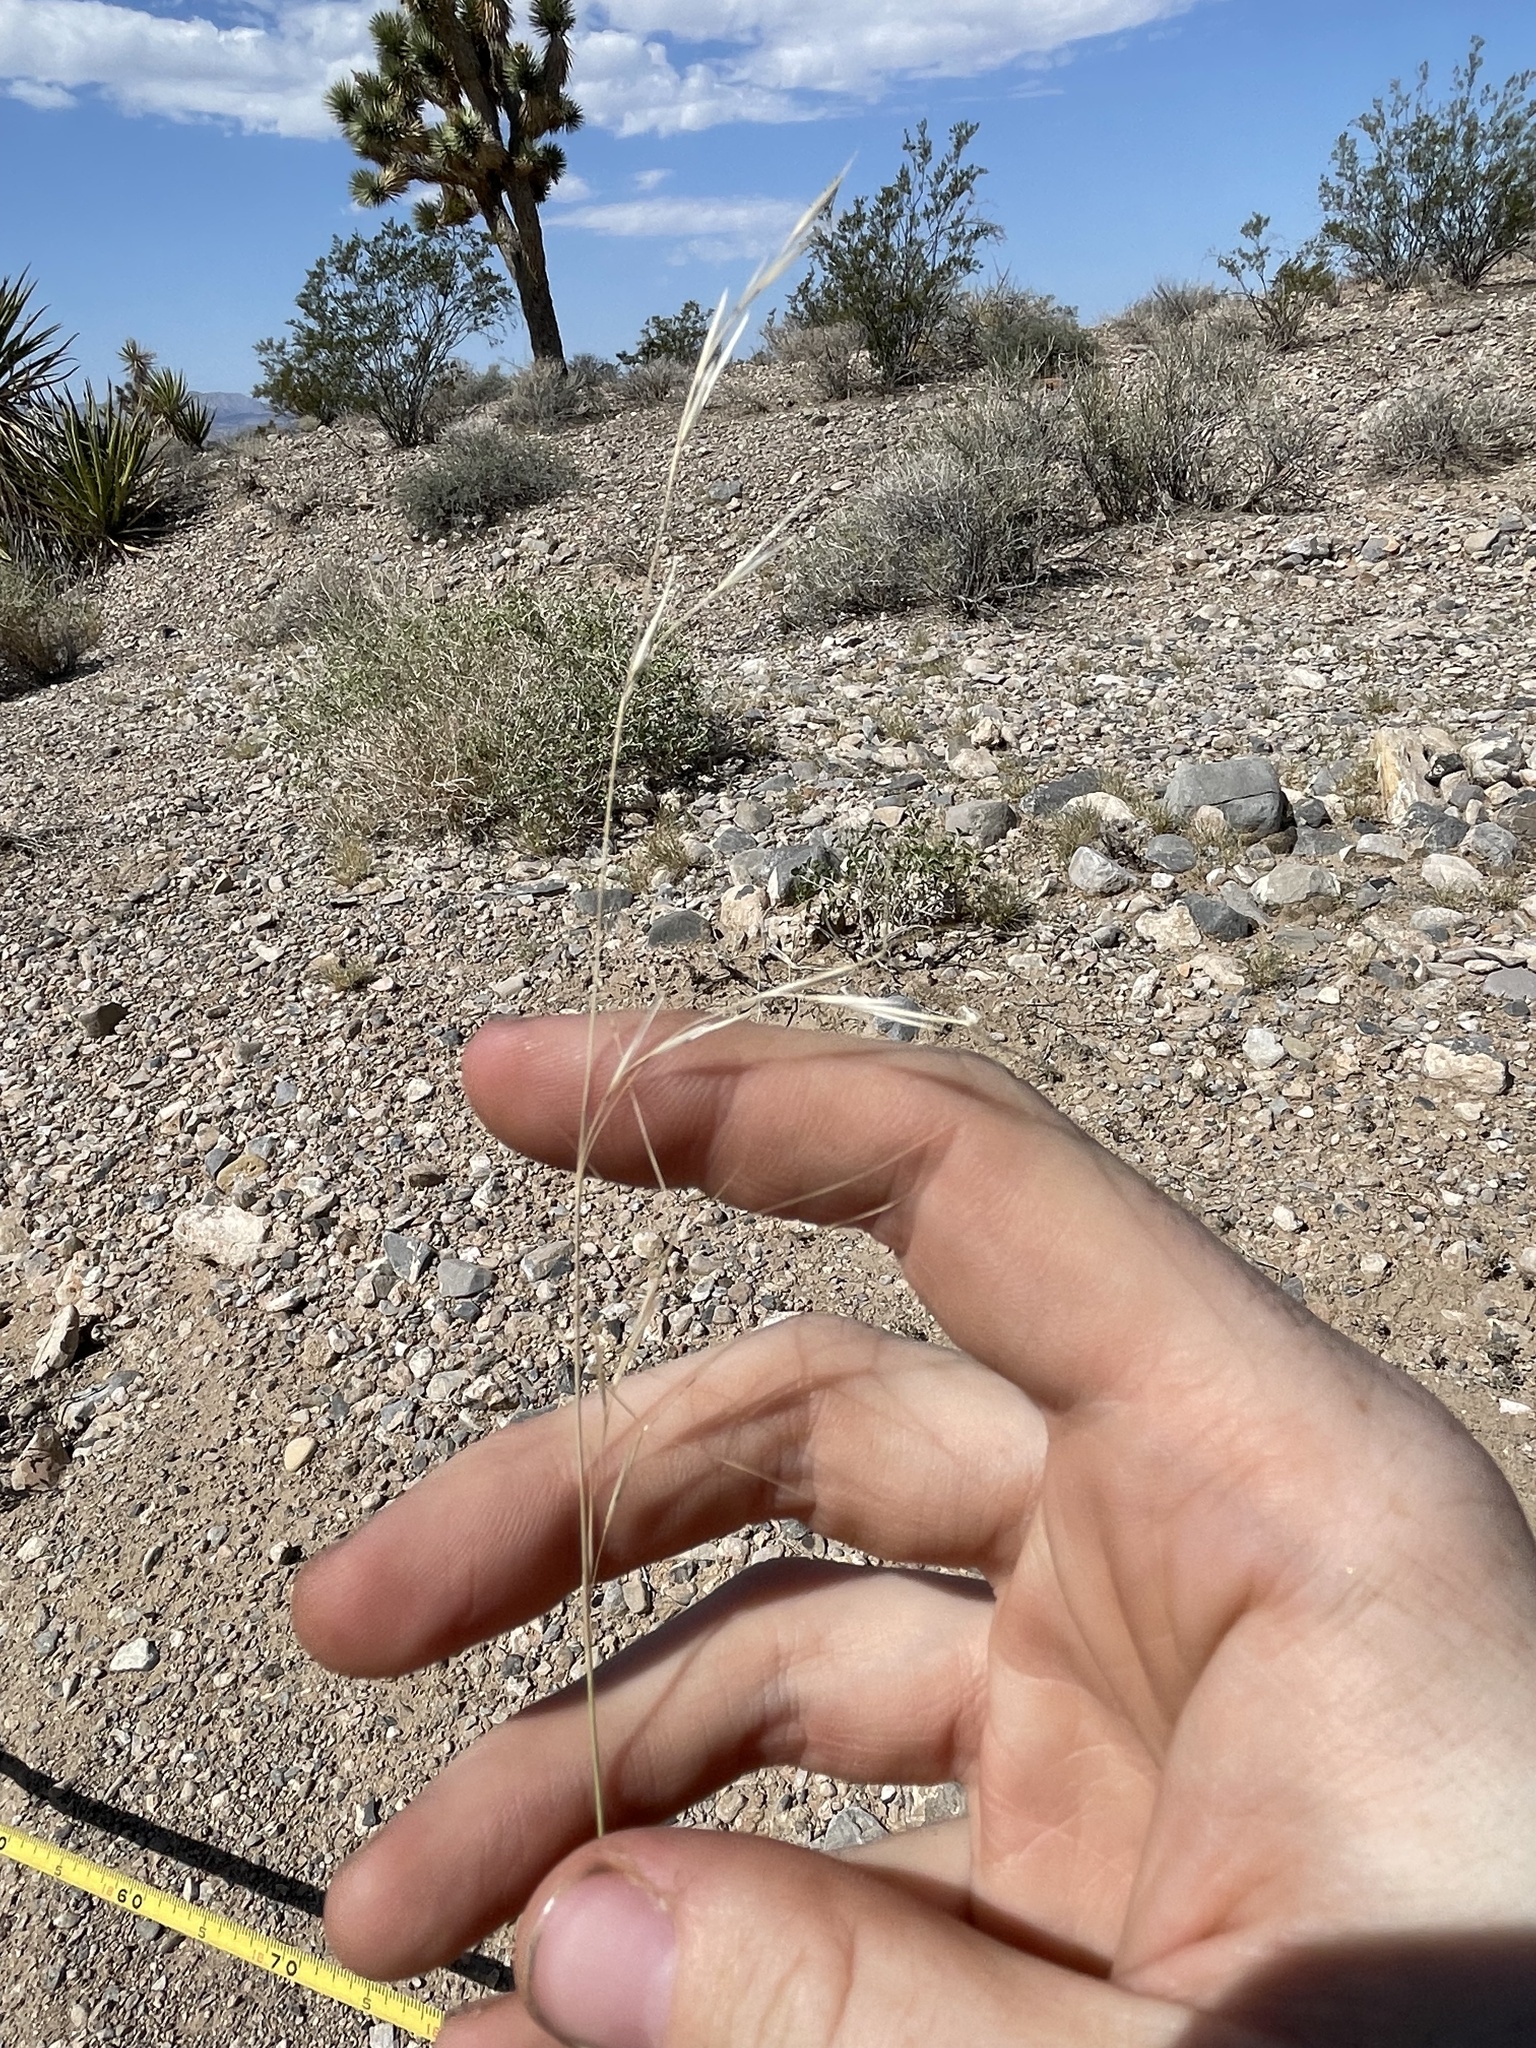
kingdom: Plantae
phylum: Tracheophyta
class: Liliopsida
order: Poales
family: Poaceae
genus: Aristida
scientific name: Aristida purpurea
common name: Purple threeawn
